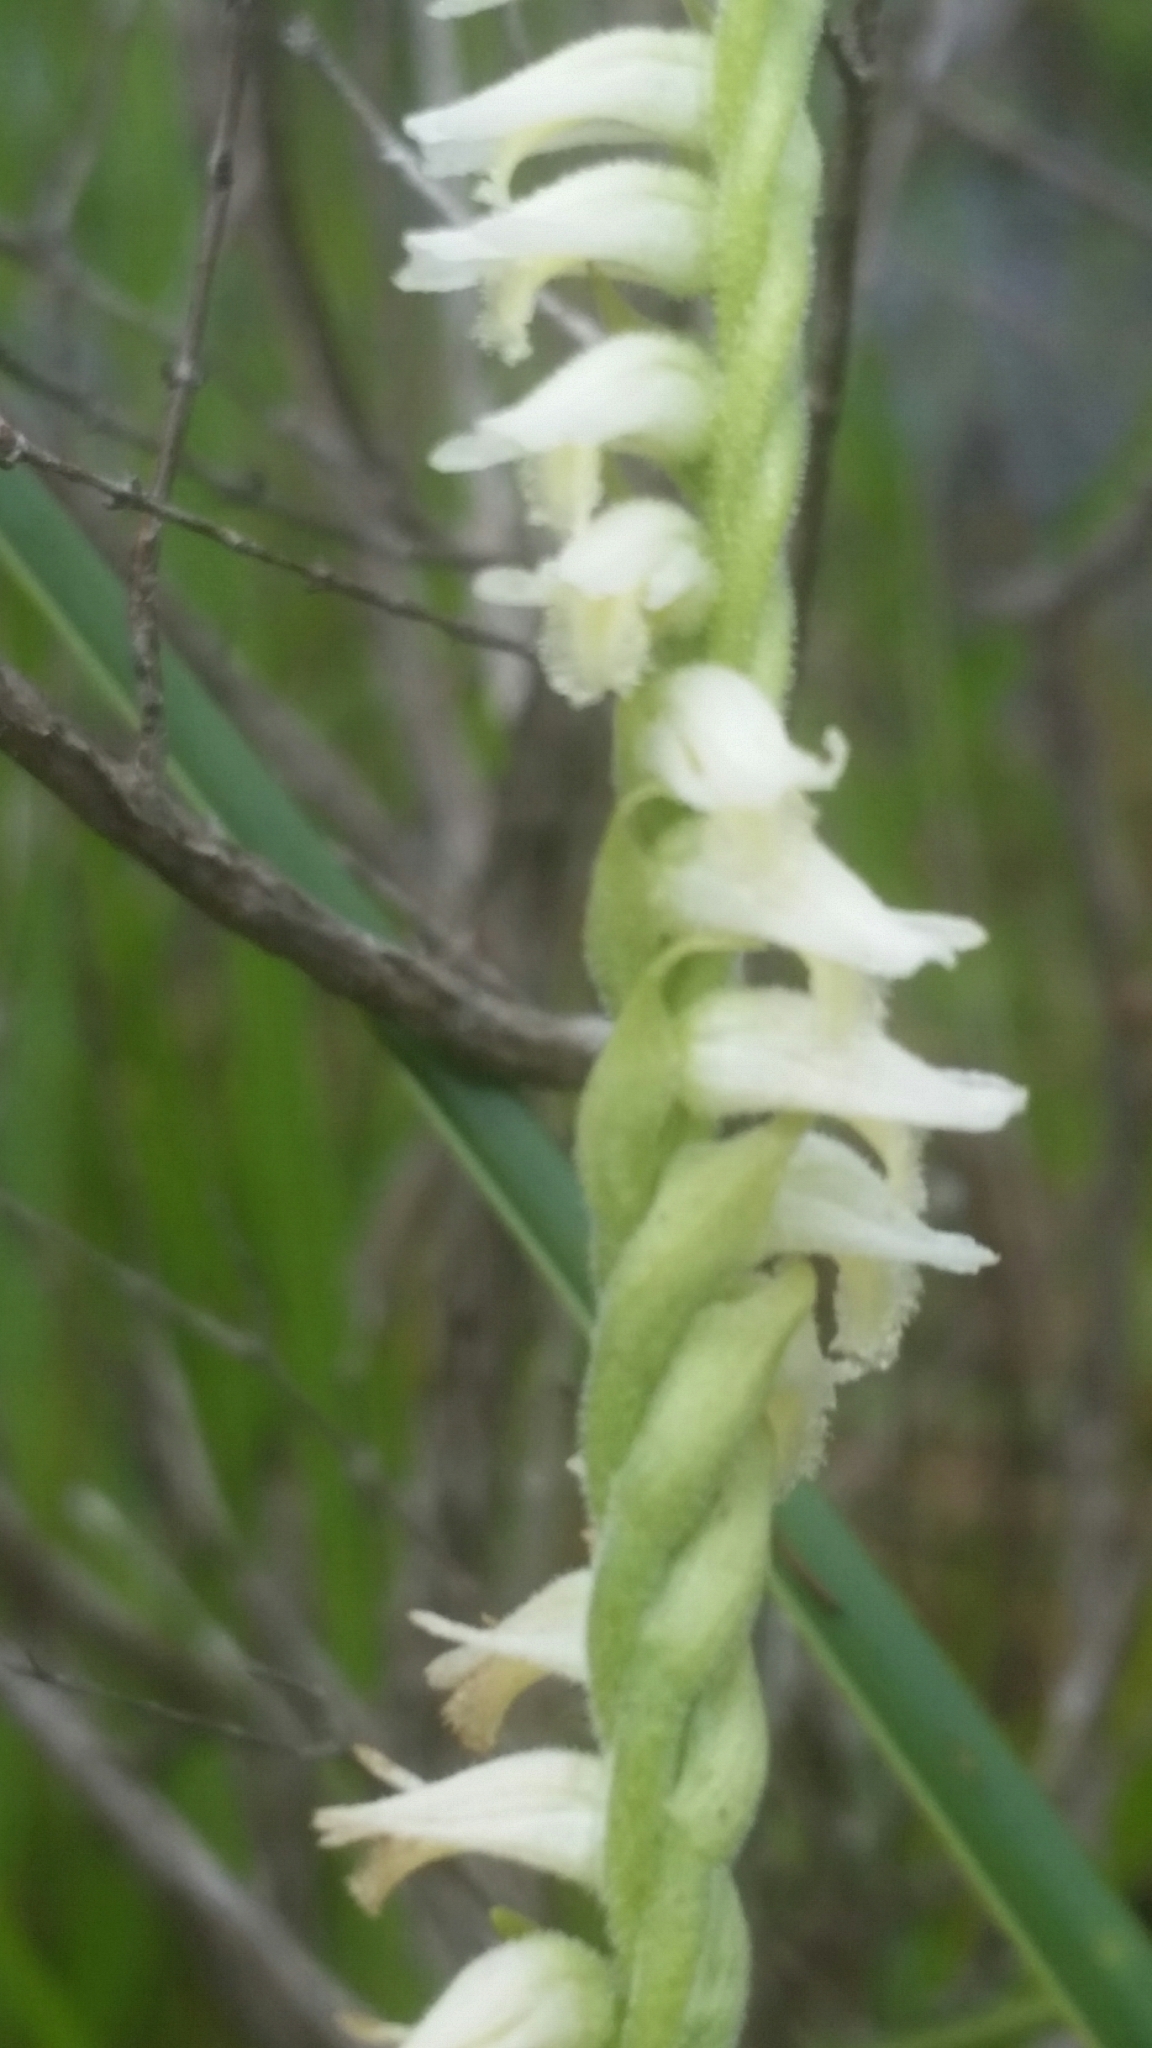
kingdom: Plantae
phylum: Tracheophyta
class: Liliopsida
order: Asparagales
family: Orchidaceae
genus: Spiranthes
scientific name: Spiranthes laciniata
